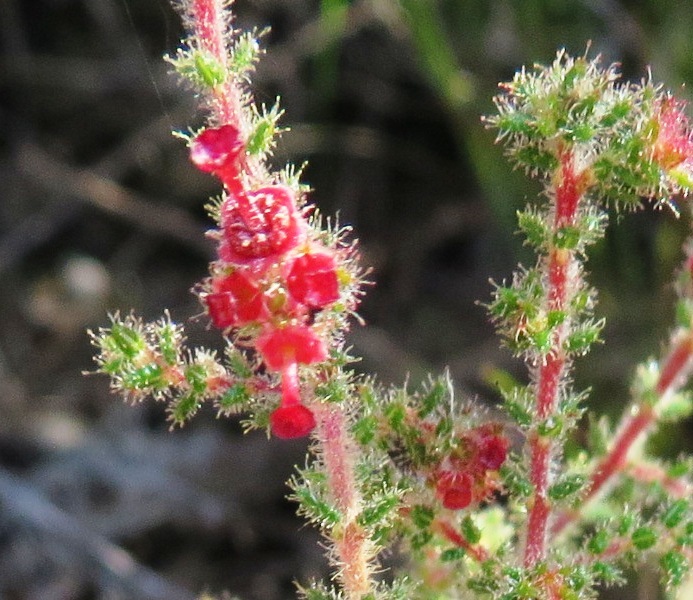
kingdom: Plantae
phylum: Tracheophyta
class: Magnoliopsida
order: Ericales
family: Ericaceae
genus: Erica
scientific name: Erica exleeana
